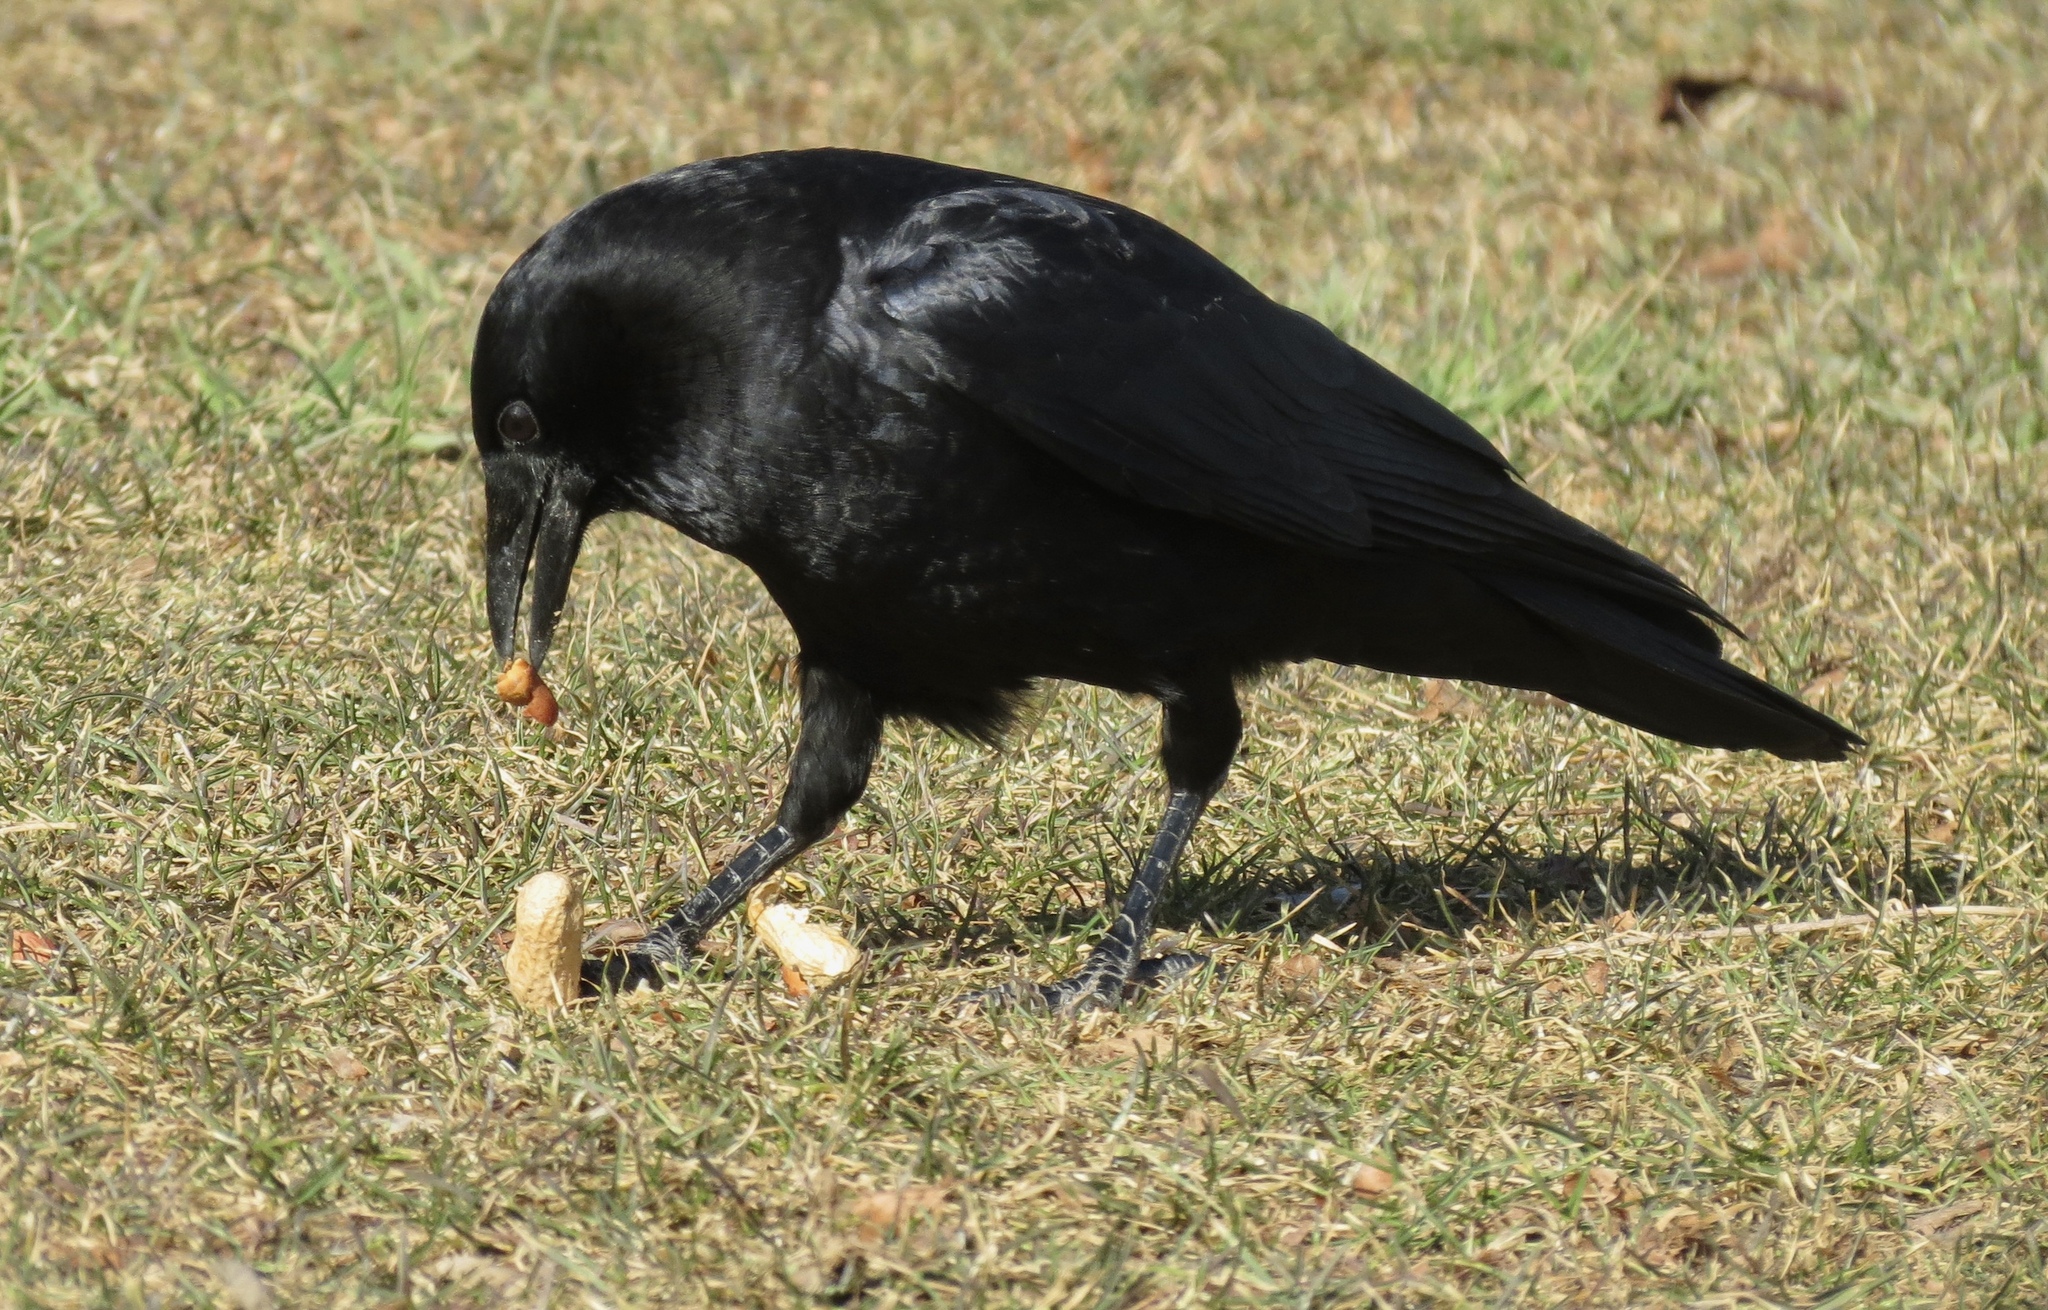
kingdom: Animalia
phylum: Chordata
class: Aves
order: Passeriformes
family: Corvidae
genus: Corvus
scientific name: Corvus brachyrhynchos
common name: American crow
